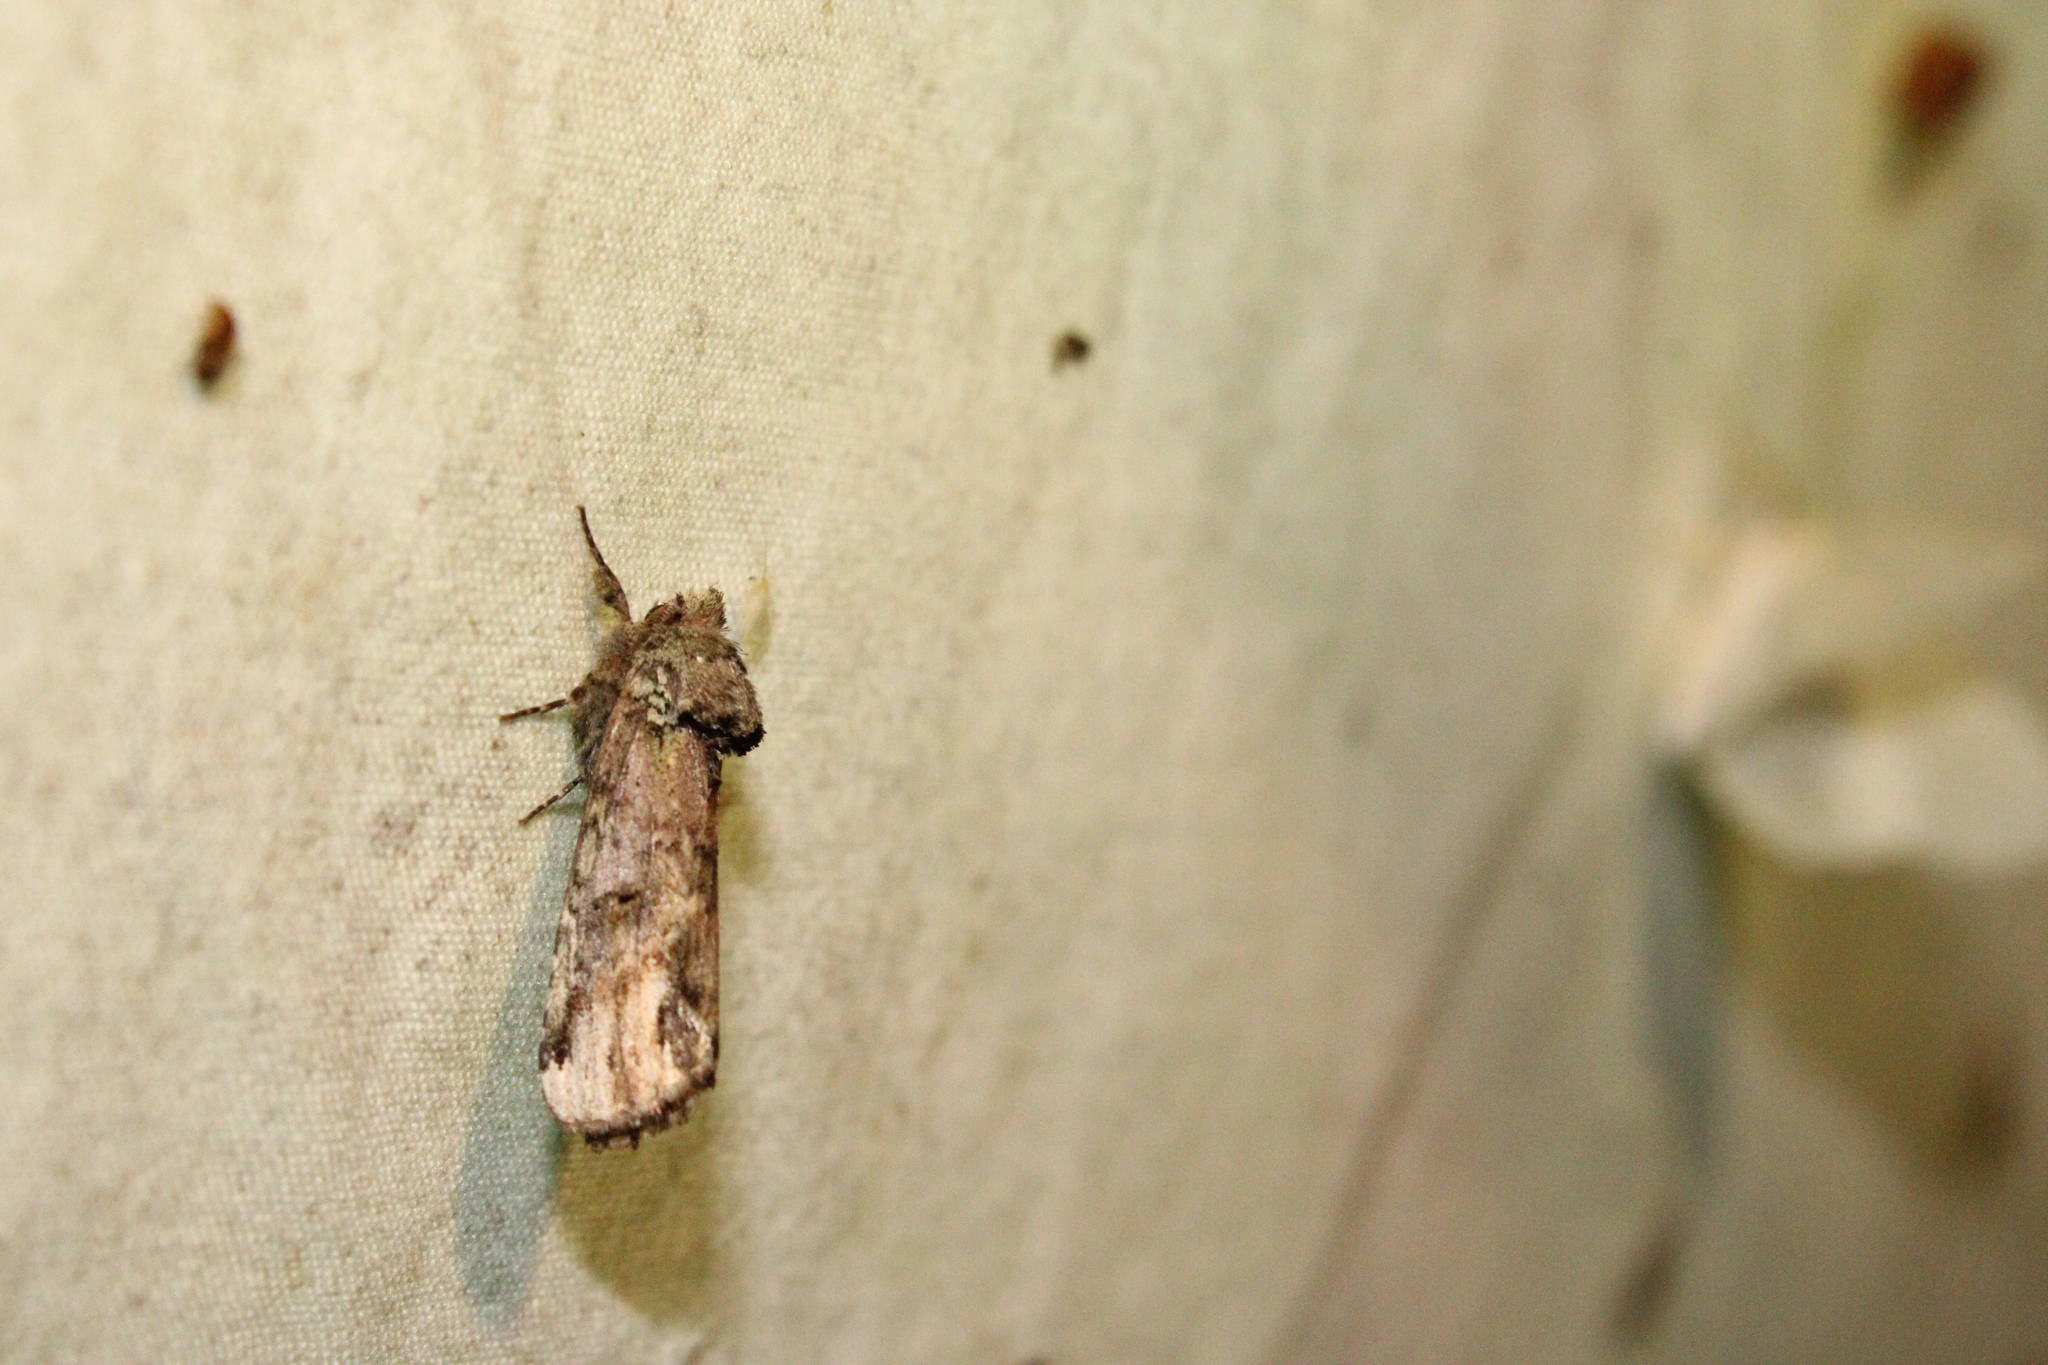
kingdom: Animalia
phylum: Arthropoda
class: Insecta
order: Lepidoptera
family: Notodontidae
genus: Schizura
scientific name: Schizura
